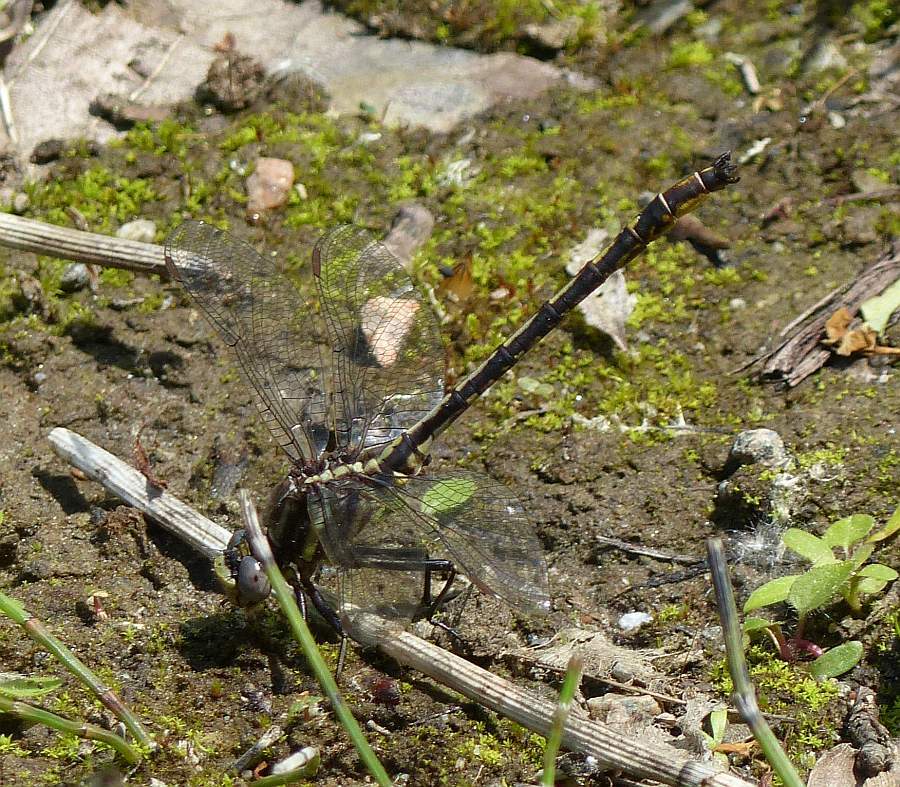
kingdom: Animalia
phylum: Arthropoda
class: Insecta
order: Odonata
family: Gomphidae
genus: Phanogomphus
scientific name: Phanogomphus spicatus
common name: Dusky clubtail
